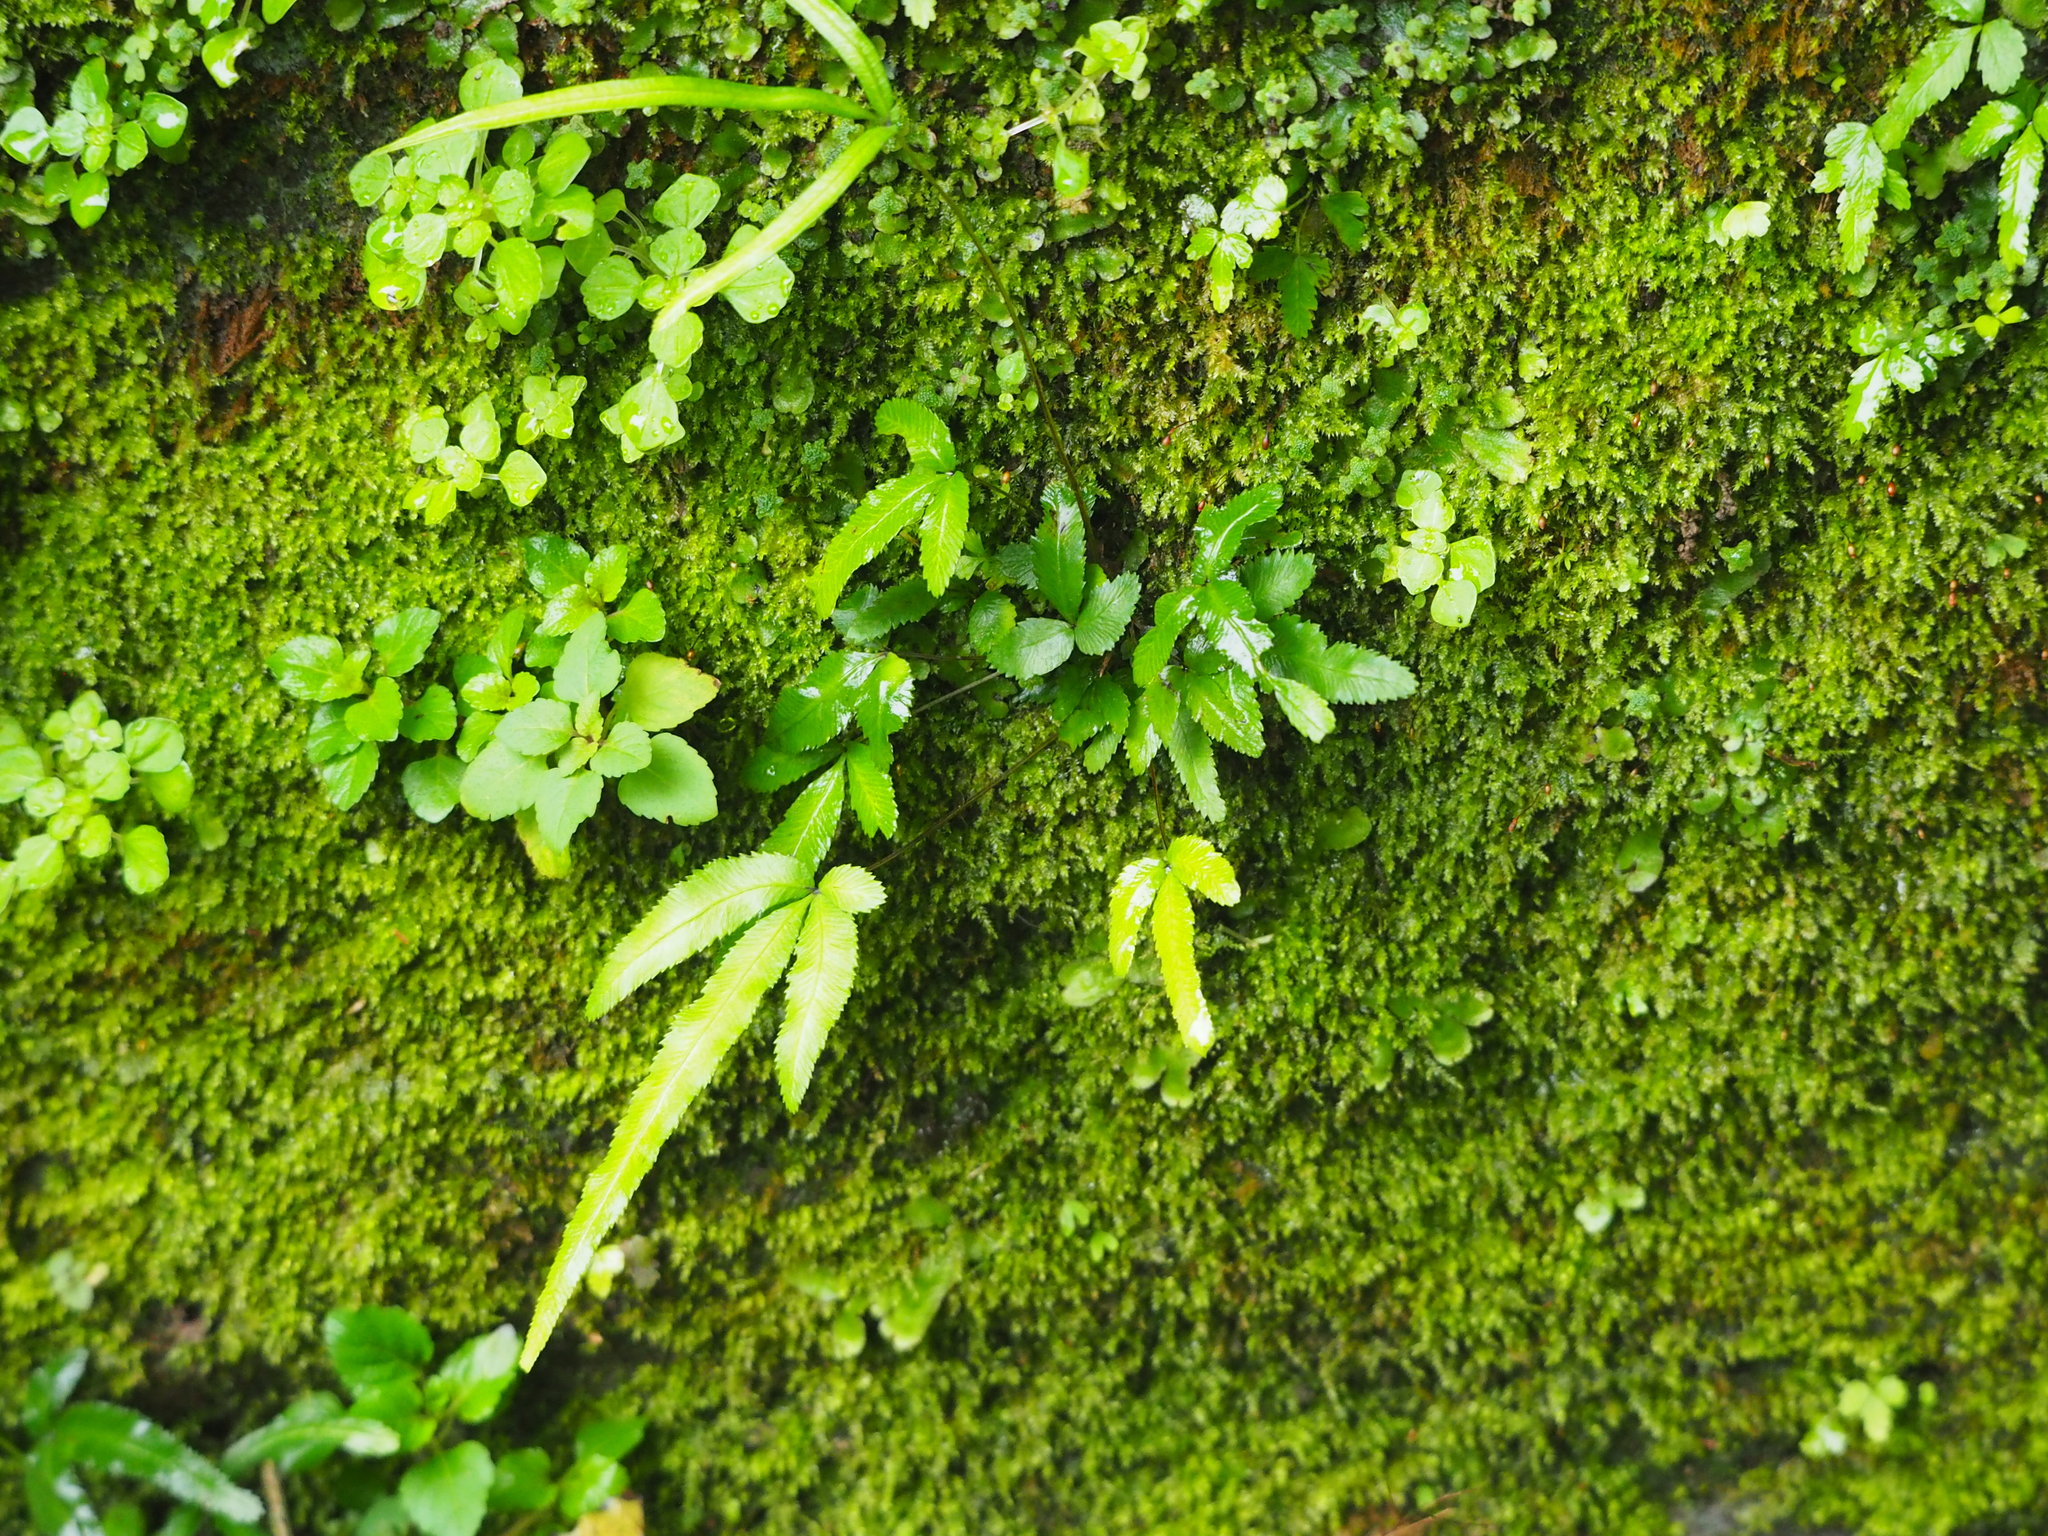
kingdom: Plantae
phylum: Tracheophyta
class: Polypodiopsida
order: Polypodiales
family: Pteridaceae
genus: Pteris
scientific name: Pteris ryukyuensis
